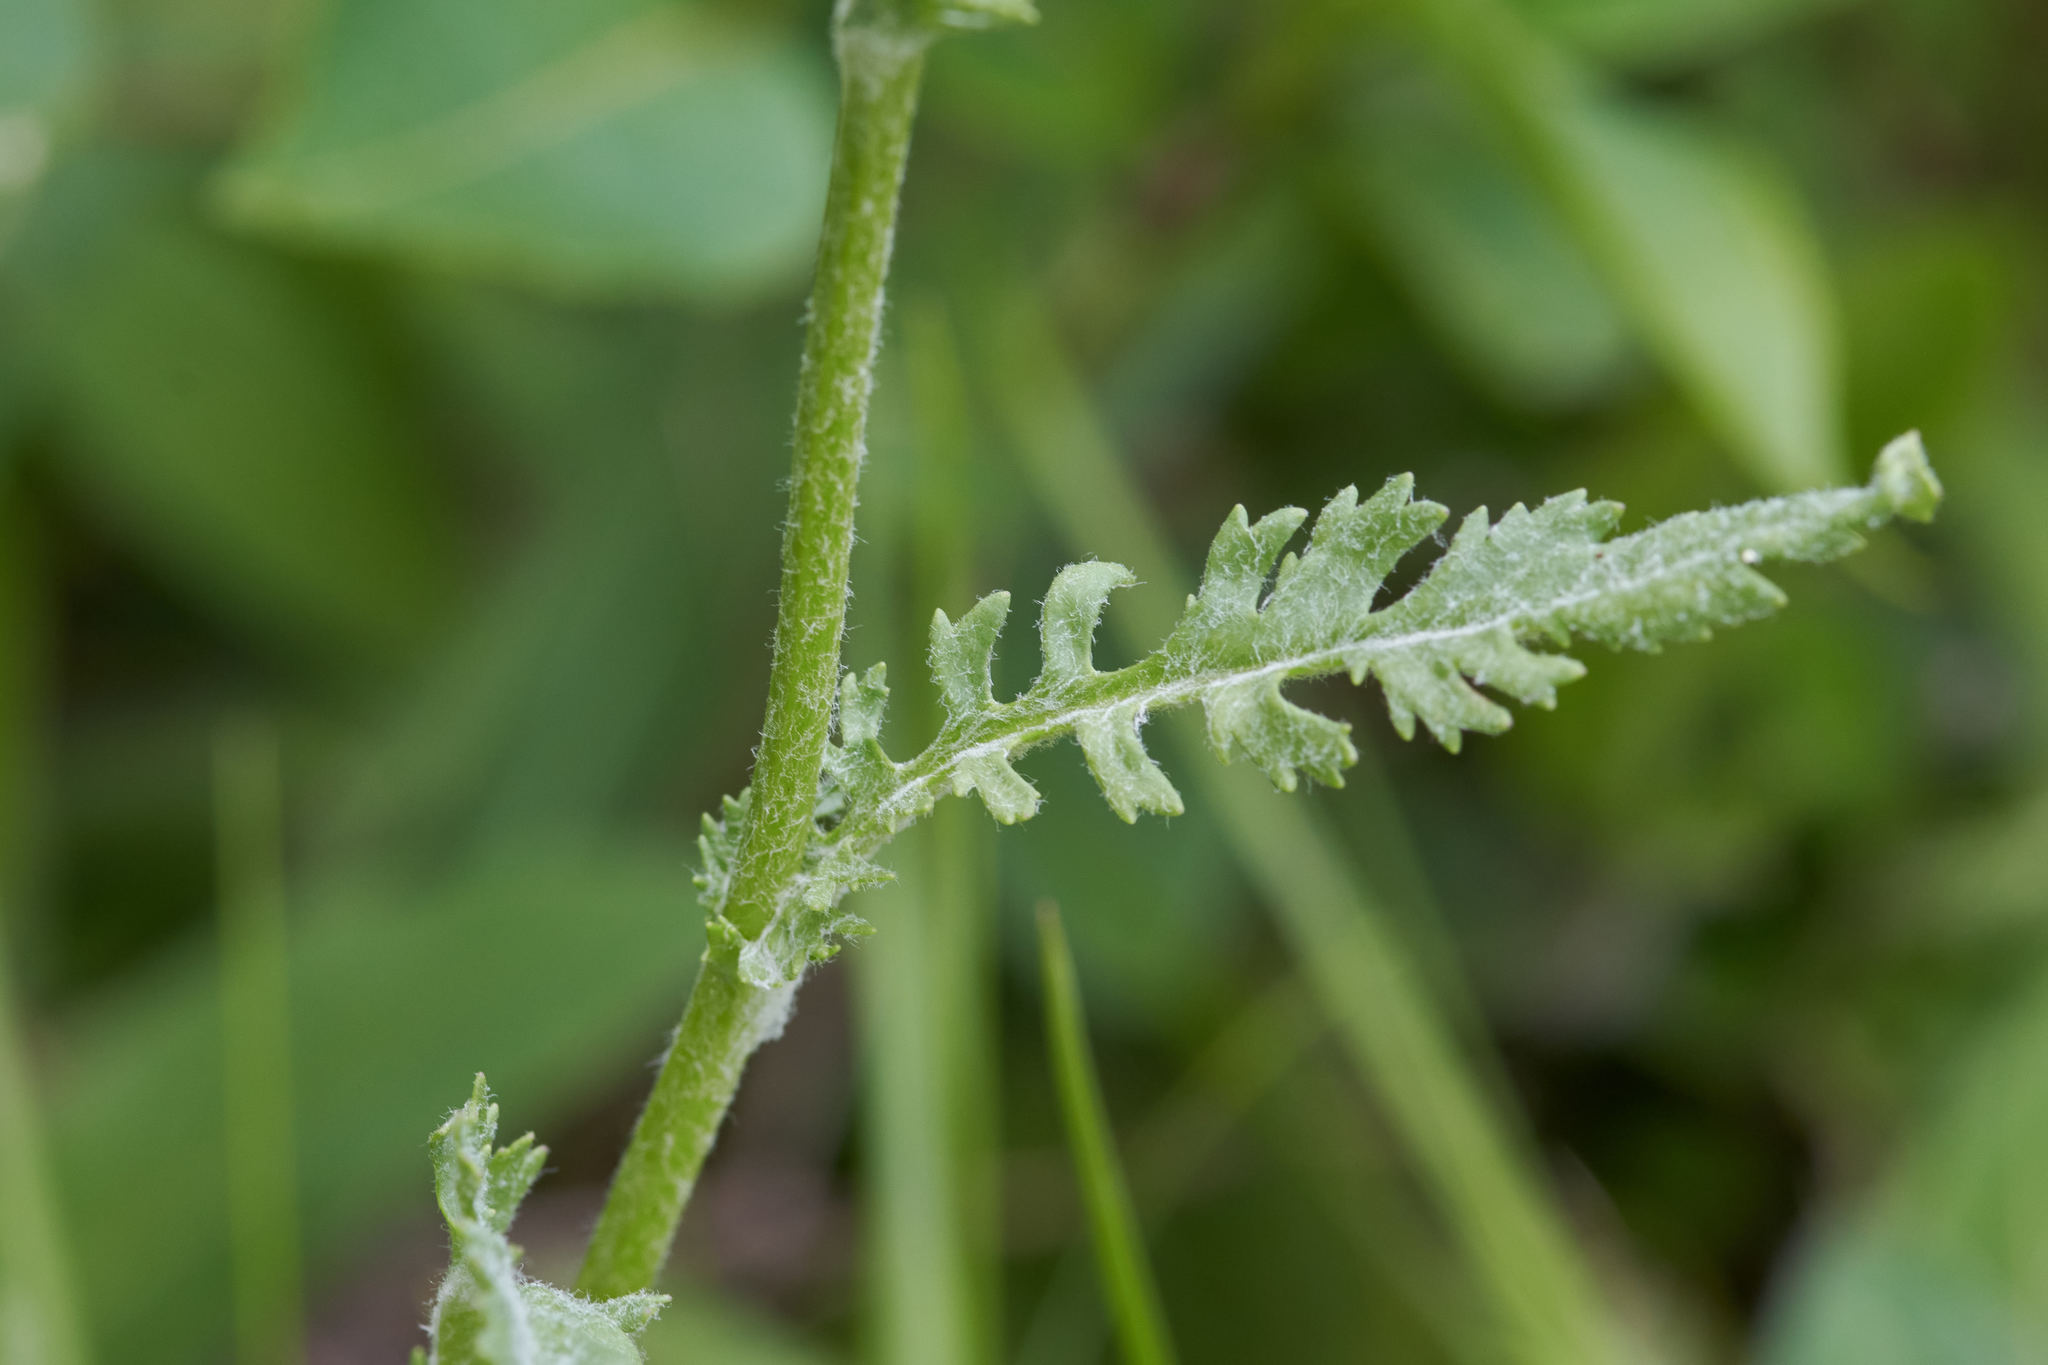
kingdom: Plantae
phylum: Tracheophyta
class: Magnoliopsida
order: Asterales
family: Asteraceae
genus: Packera
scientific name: Packera paupercula
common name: Balsam groundsel
